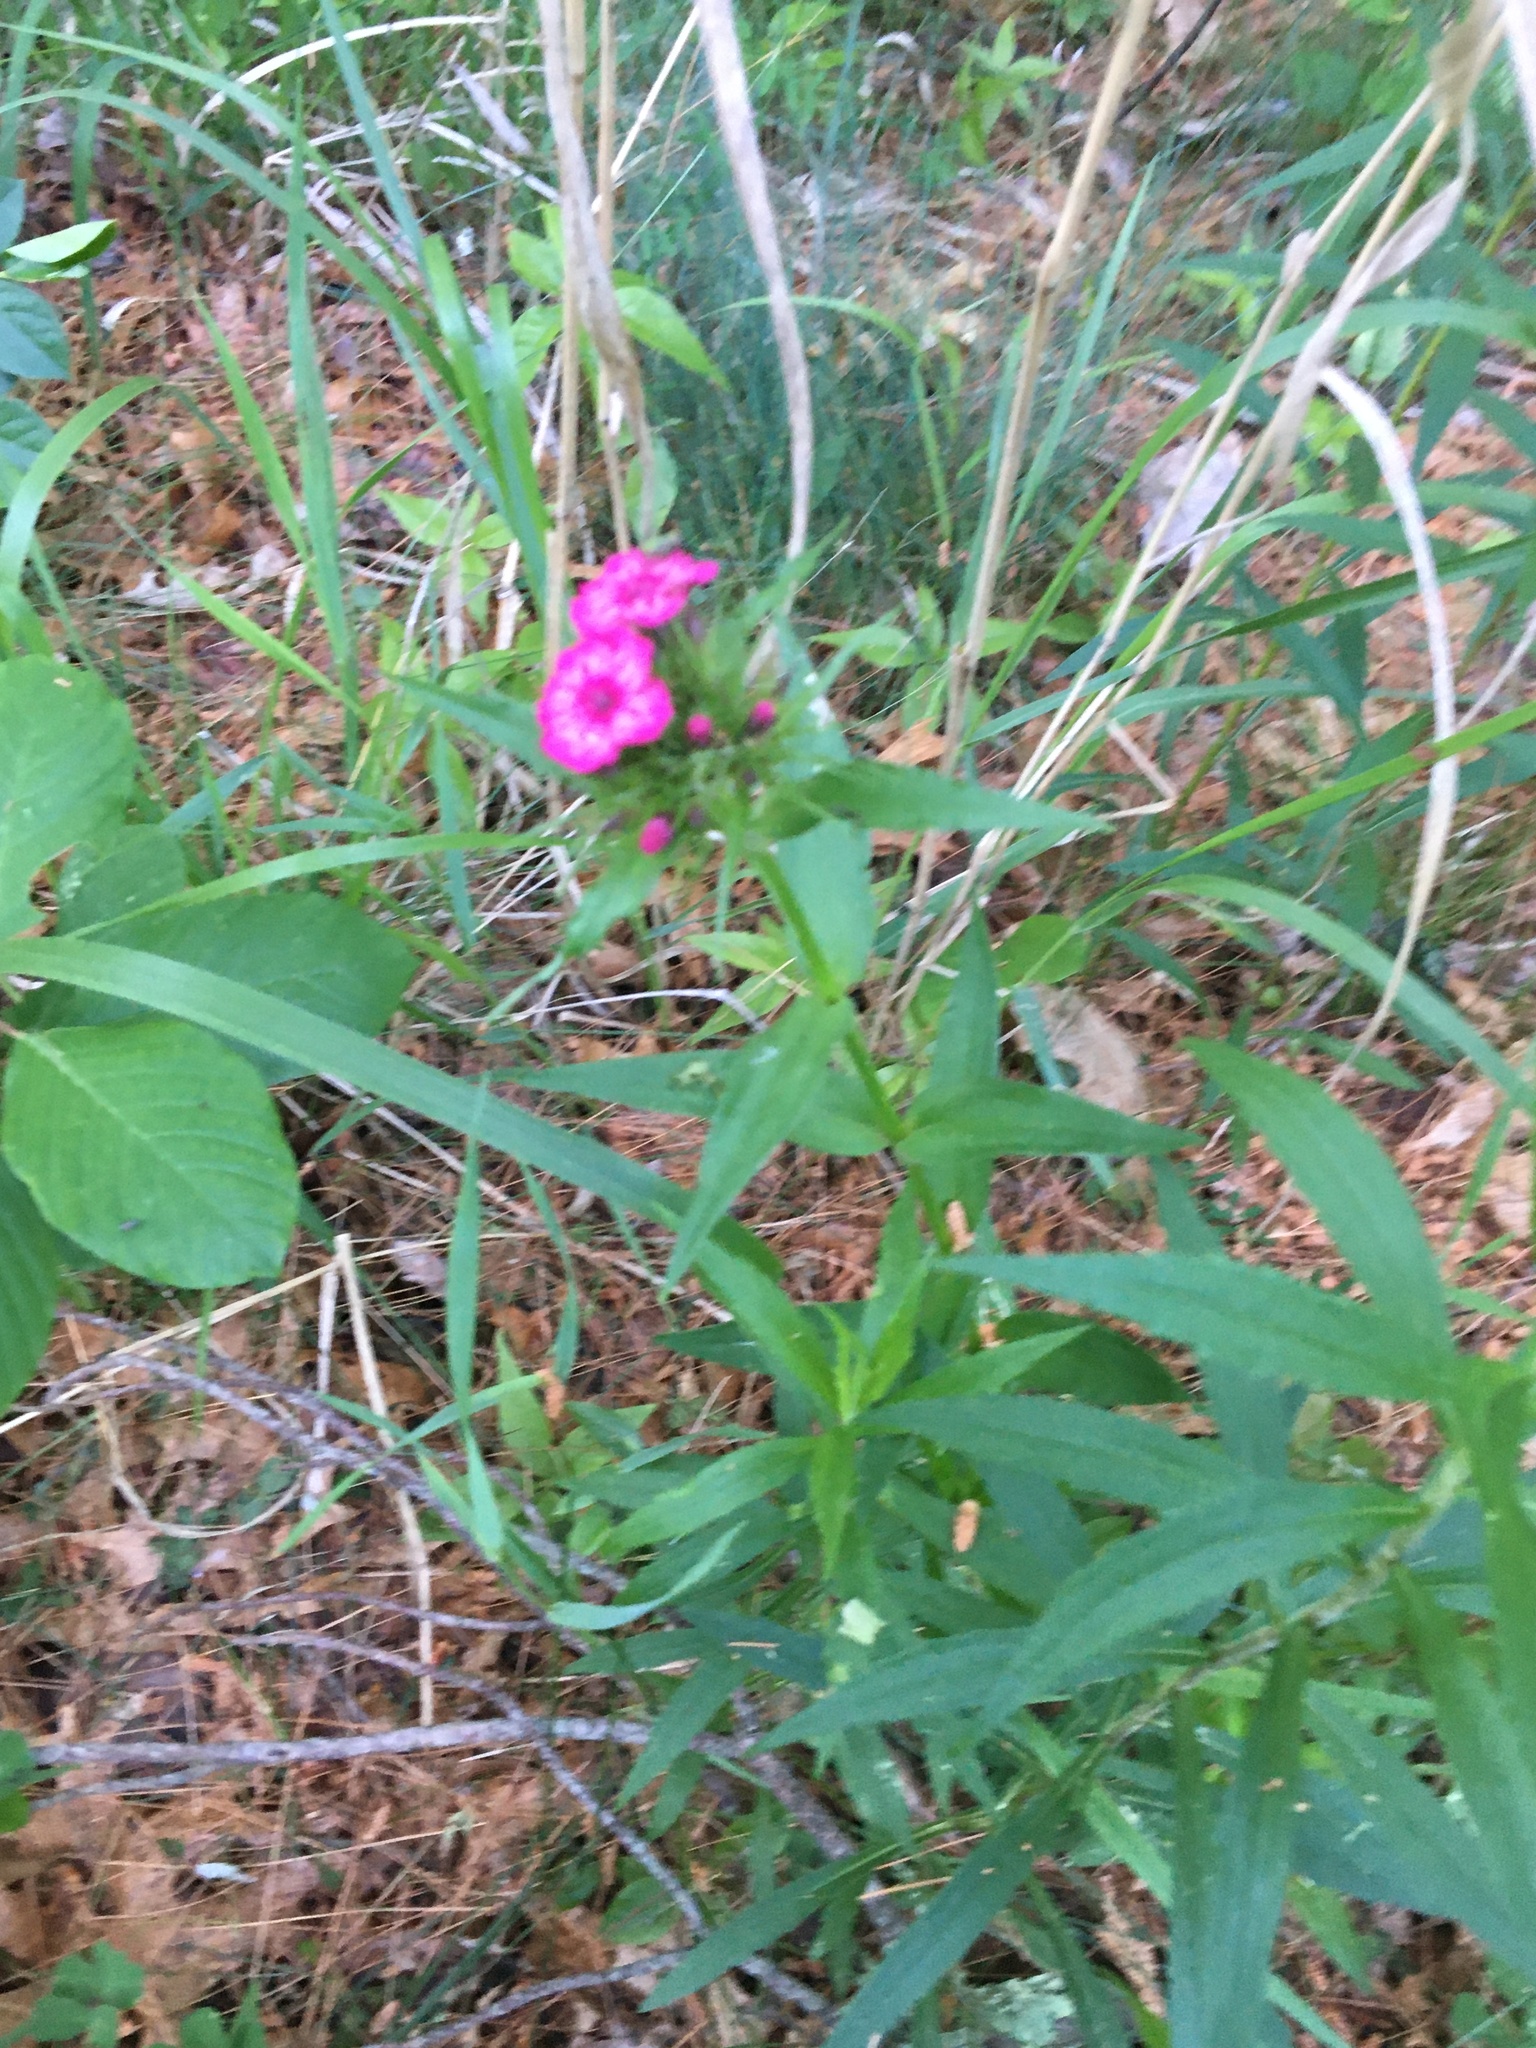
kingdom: Plantae
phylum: Tracheophyta
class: Magnoliopsida
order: Caryophyllales
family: Caryophyllaceae
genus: Dianthus
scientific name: Dianthus barbatus
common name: Sweet-william
